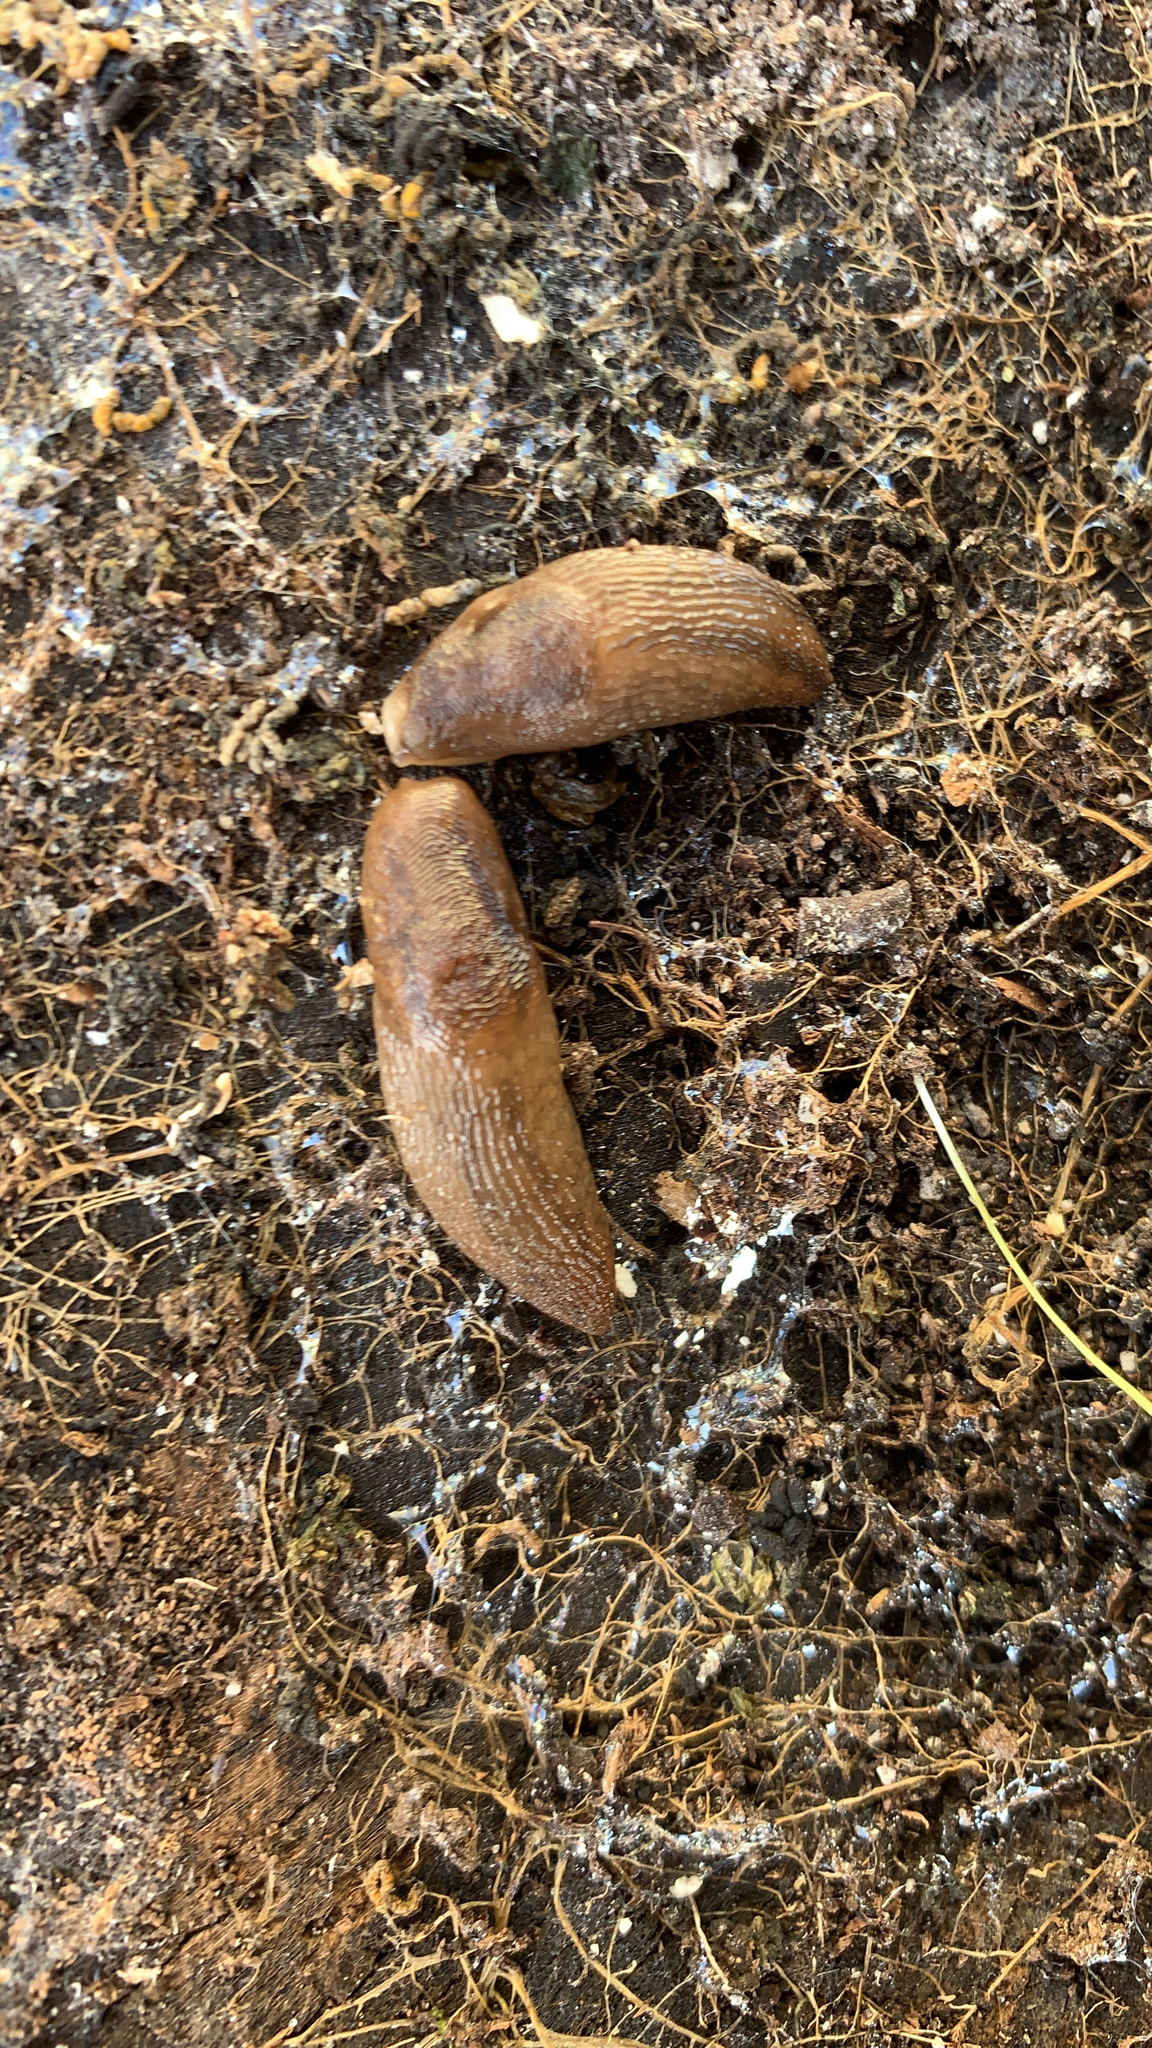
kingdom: Animalia
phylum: Mollusca
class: Gastropoda
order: Stylommatophora
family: Limacidae
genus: Ambigolimax
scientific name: Ambigolimax
